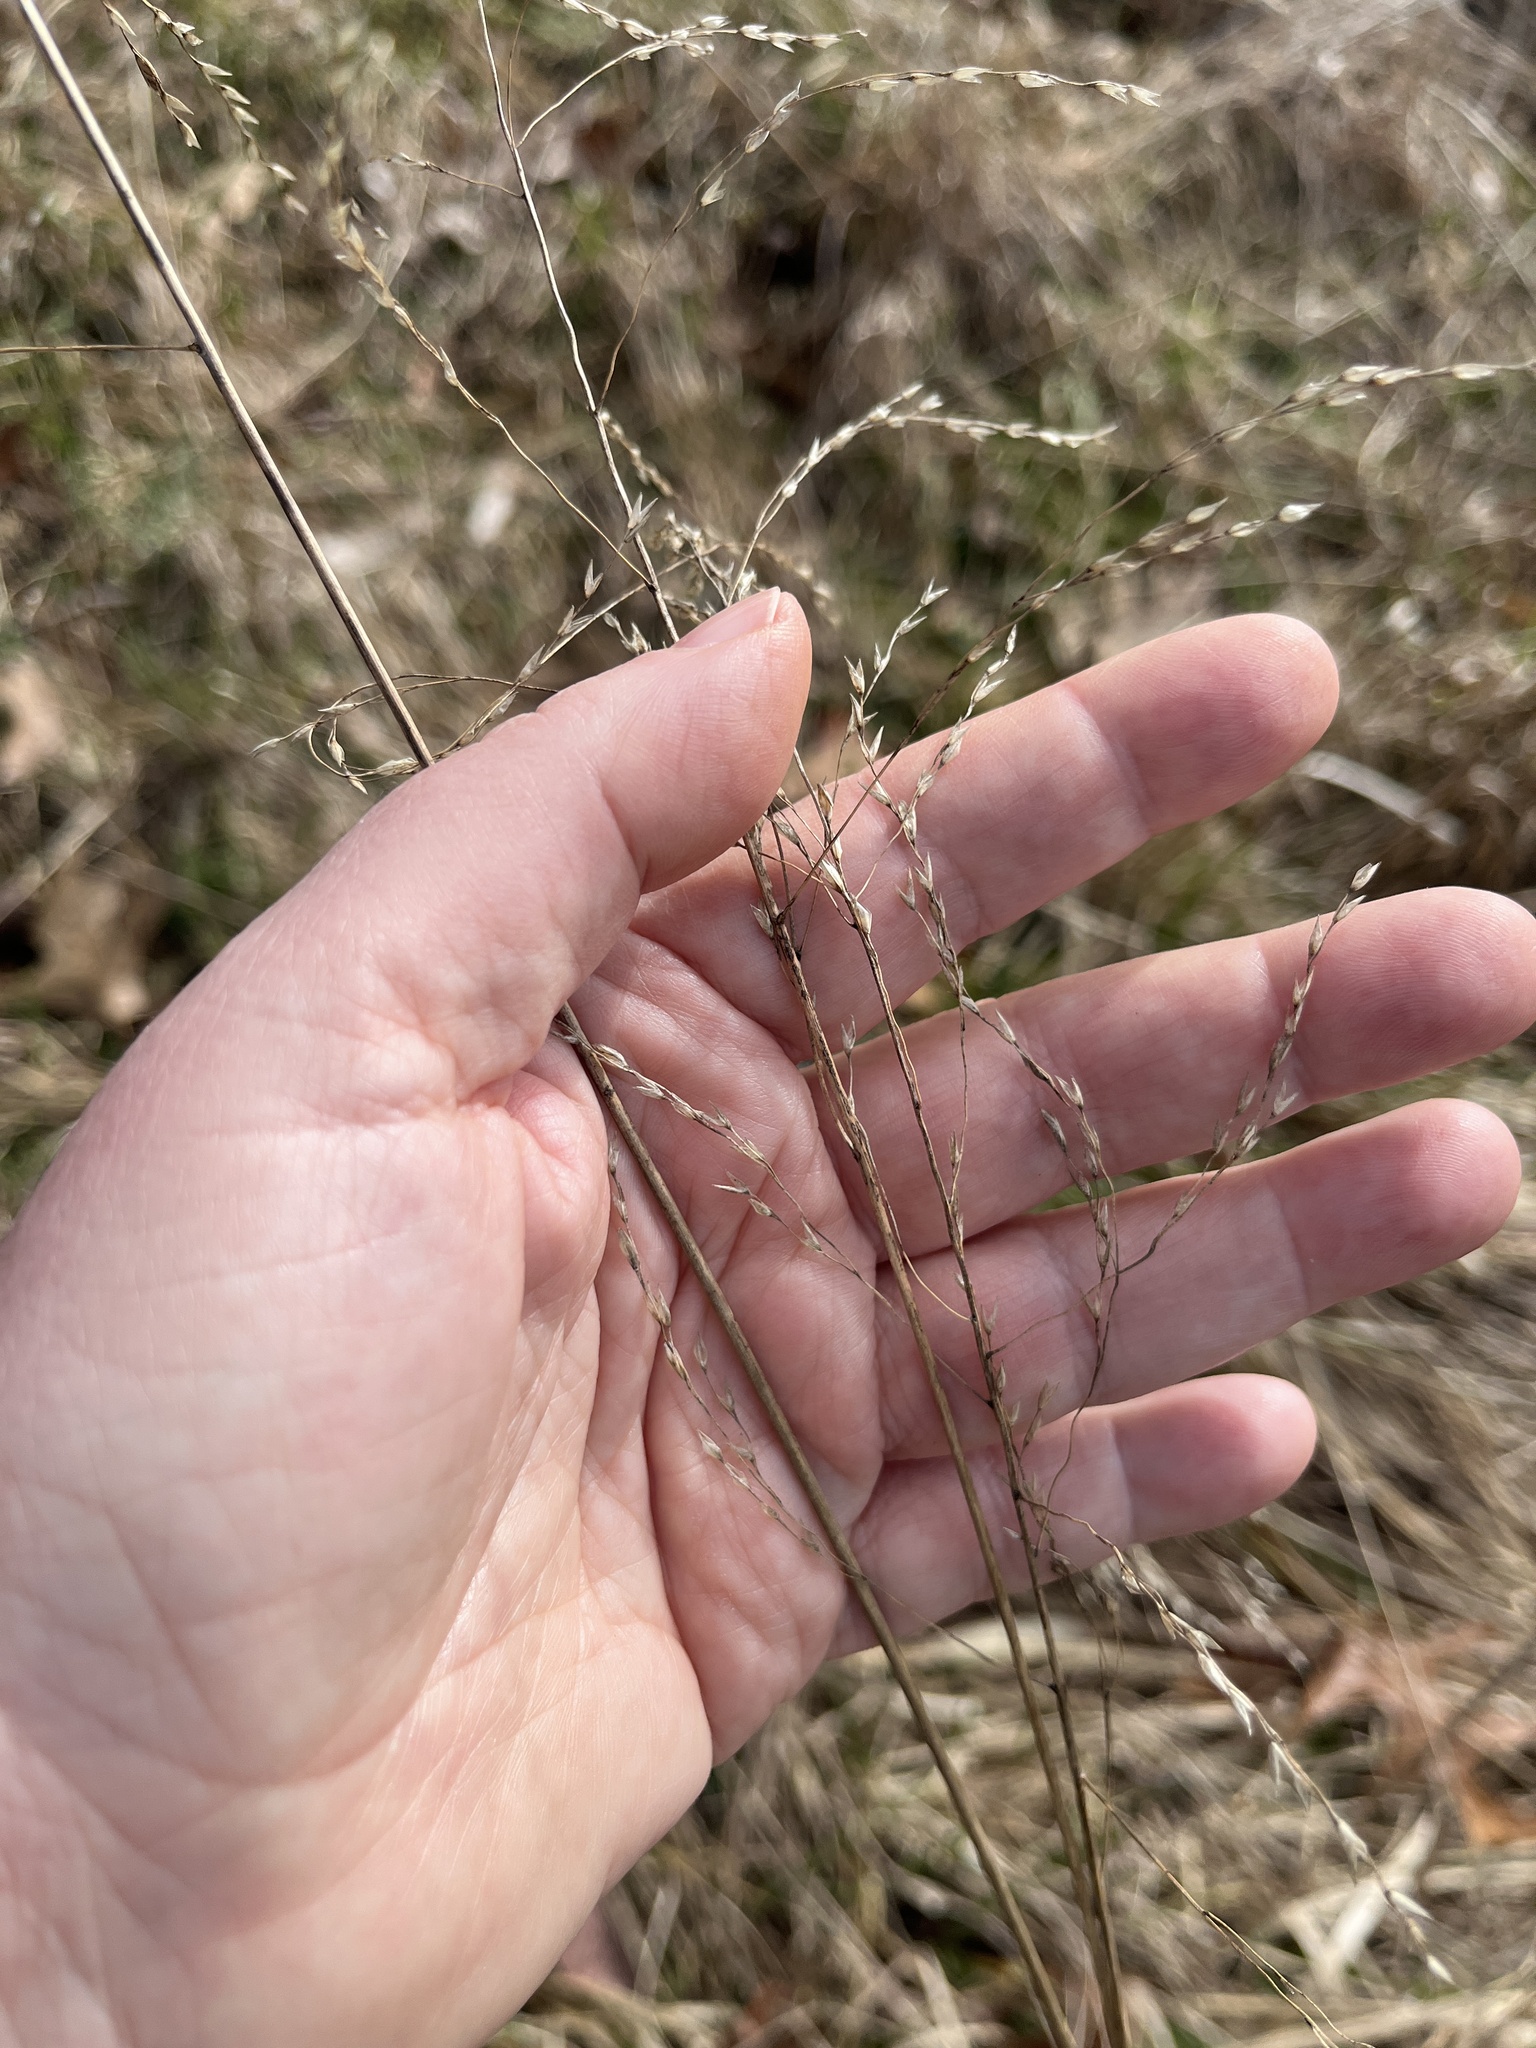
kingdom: Plantae
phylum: Tracheophyta
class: Liliopsida
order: Poales
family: Poaceae
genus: Tridens
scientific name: Tridens flavus
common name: Purpletop
